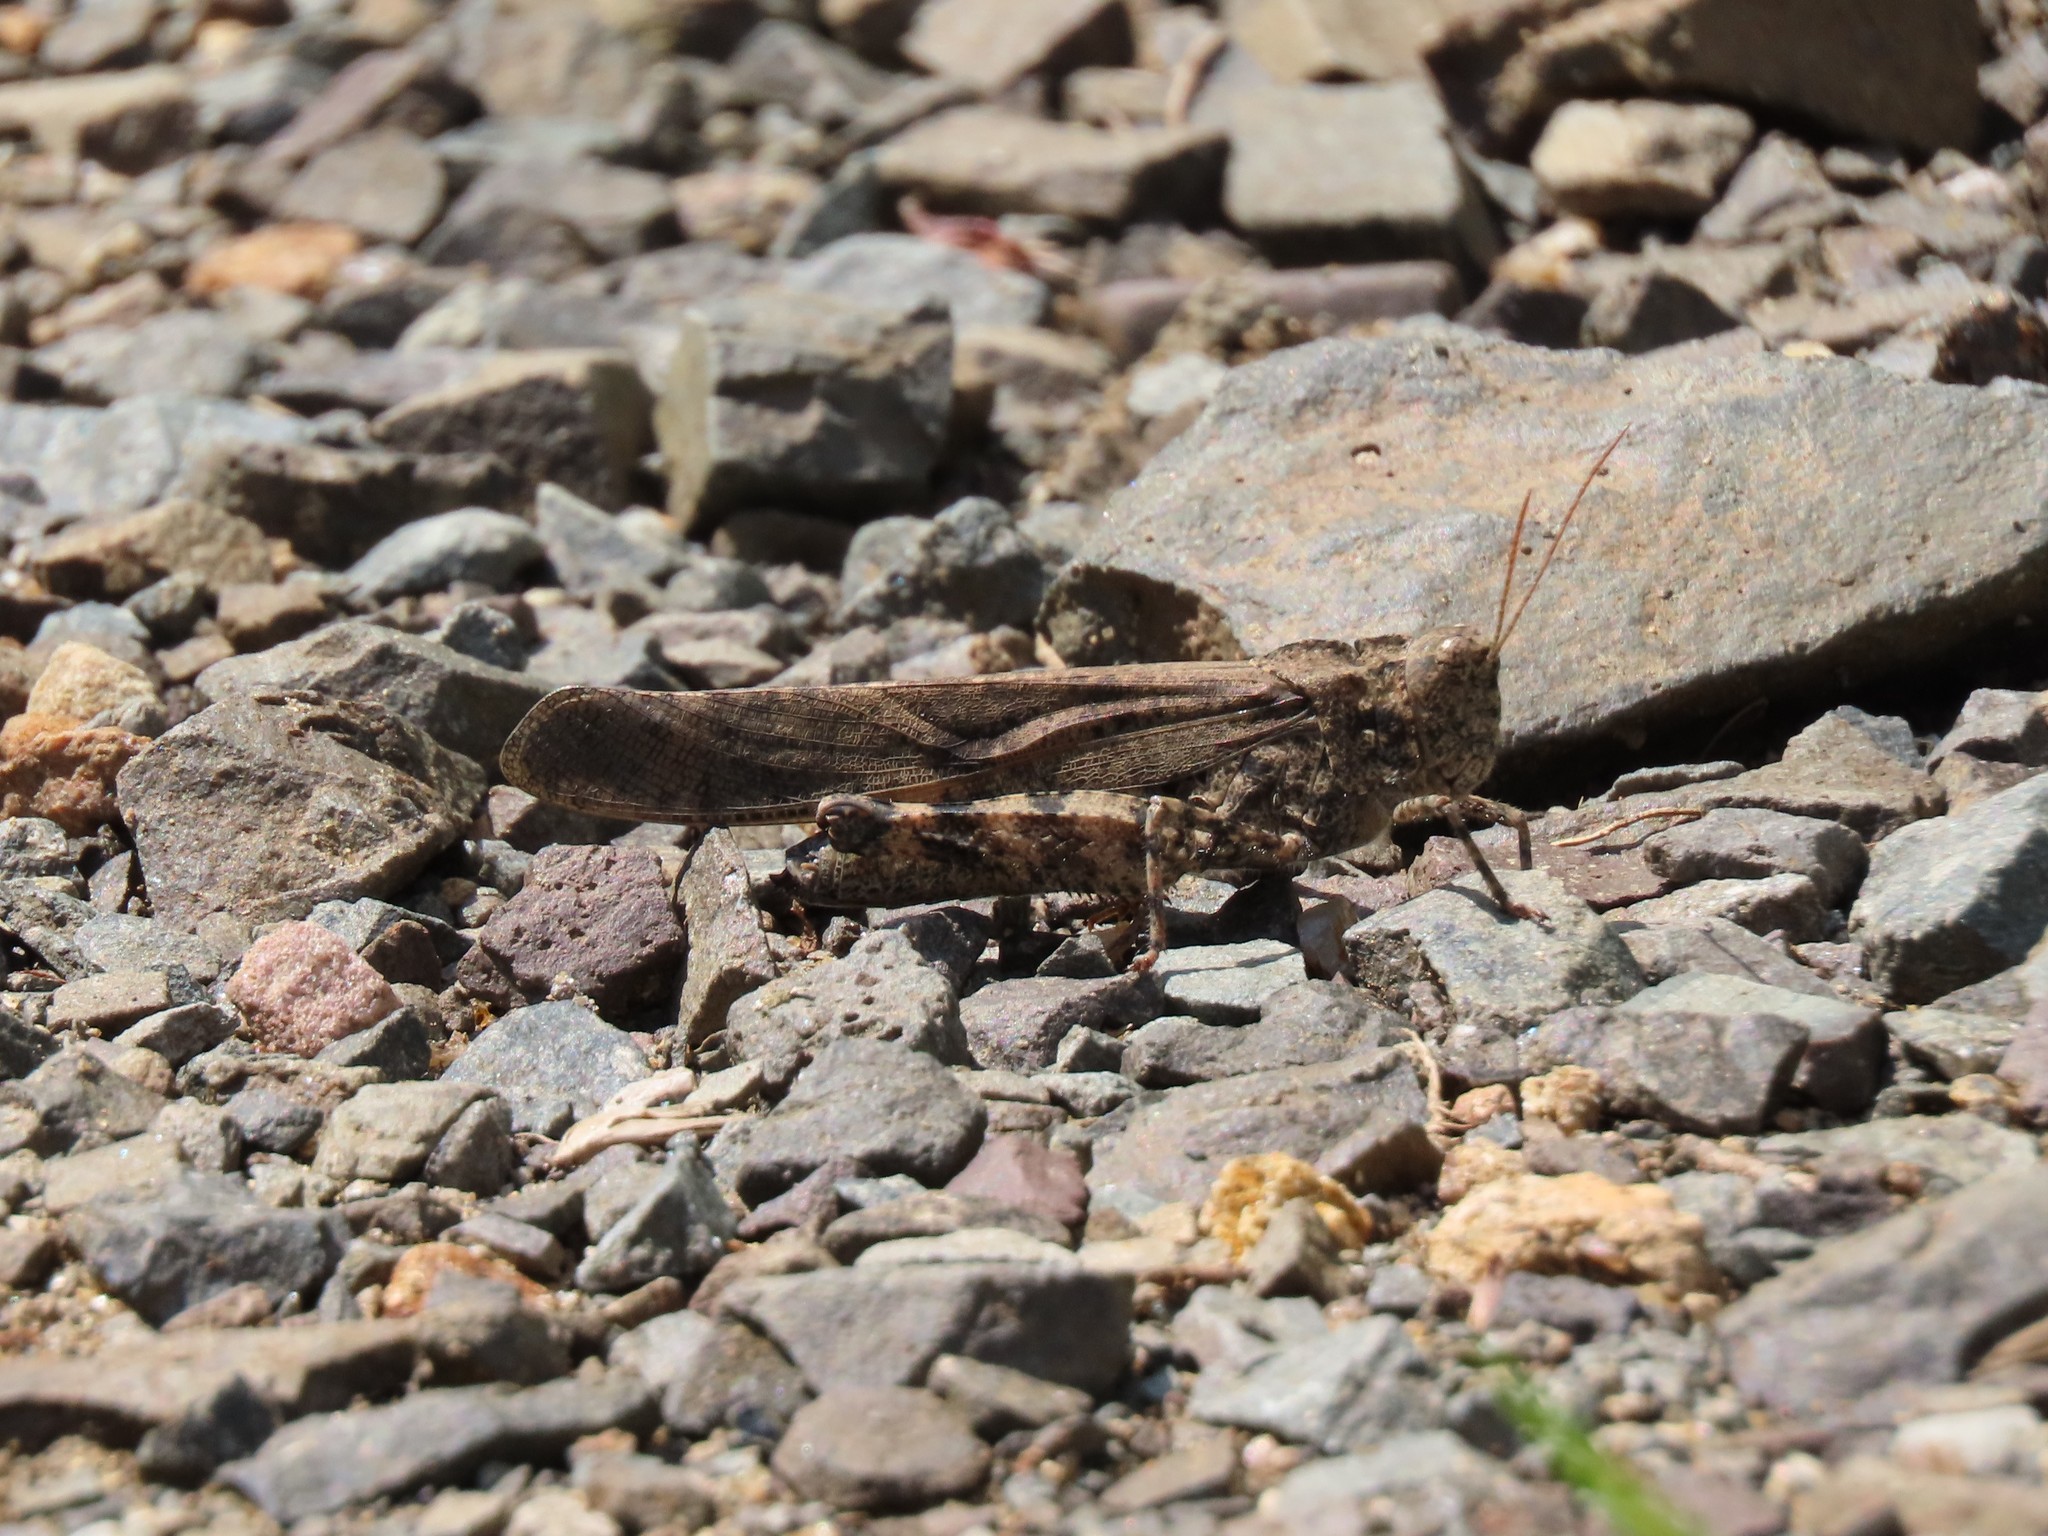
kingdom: Animalia
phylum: Arthropoda
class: Insecta
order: Orthoptera
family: Acrididae
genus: Dissosteira
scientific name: Dissosteira carolina
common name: Carolina grasshopper
